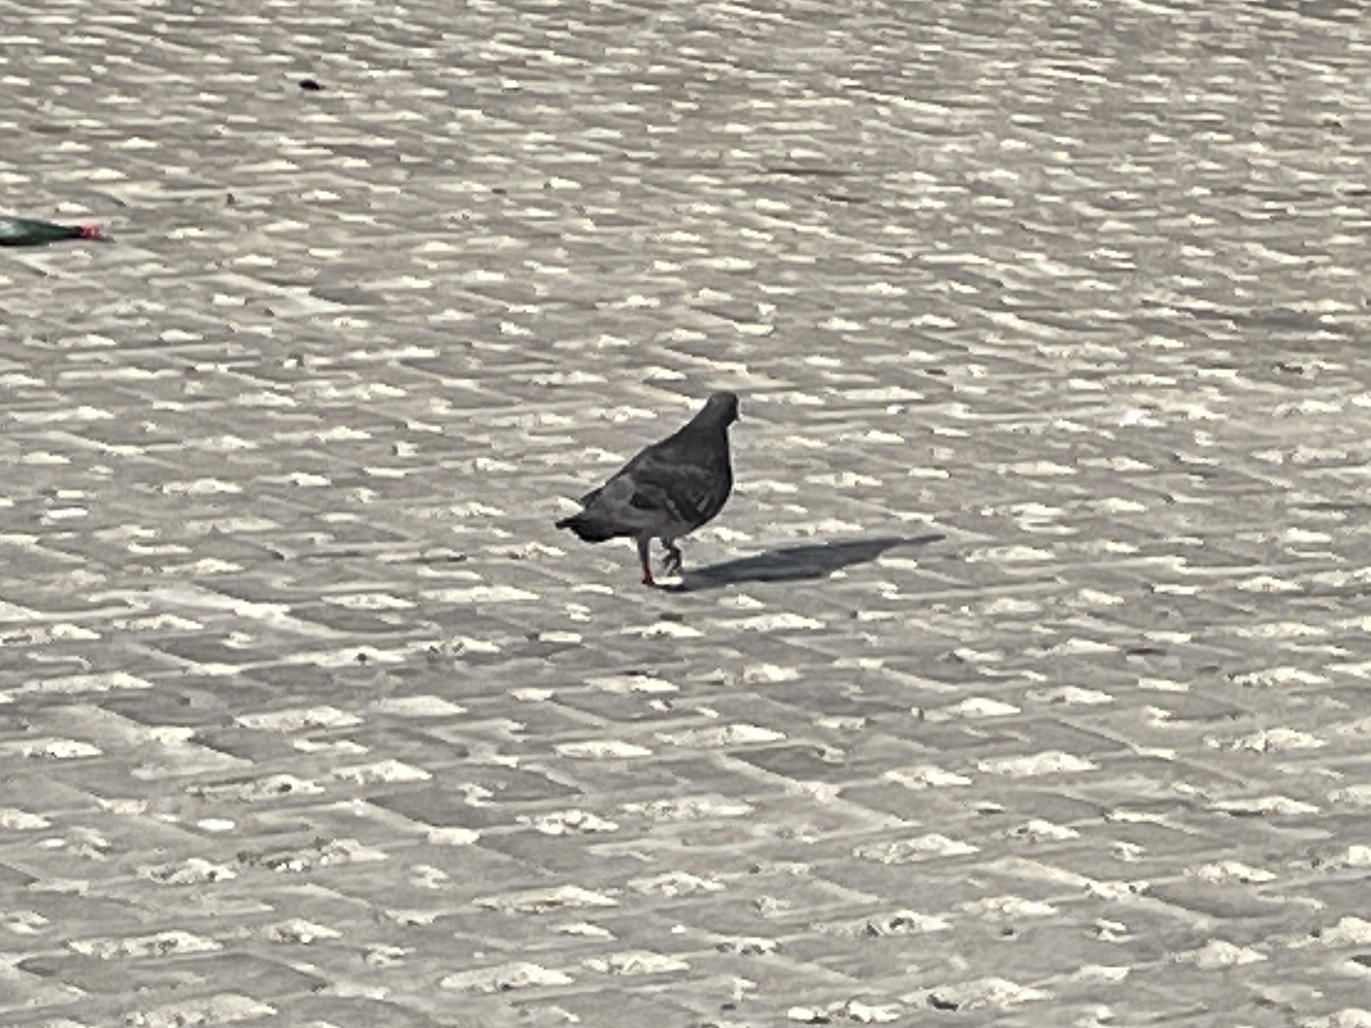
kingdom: Animalia
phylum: Chordata
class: Aves
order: Columbiformes
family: Columbidae
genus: Columba
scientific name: Columba livia
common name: Rock pigeon
